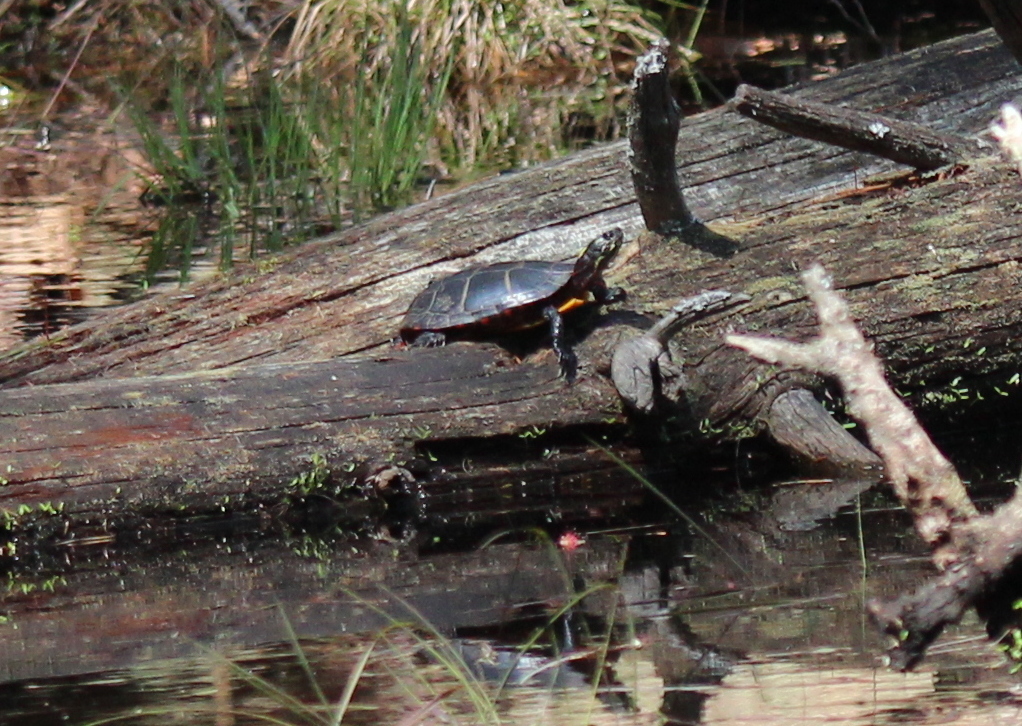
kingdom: Animalia
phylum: Chordata
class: Testudines
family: Emydidae
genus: Chrysemys
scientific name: Chrysemys picta
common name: Painted turtle
